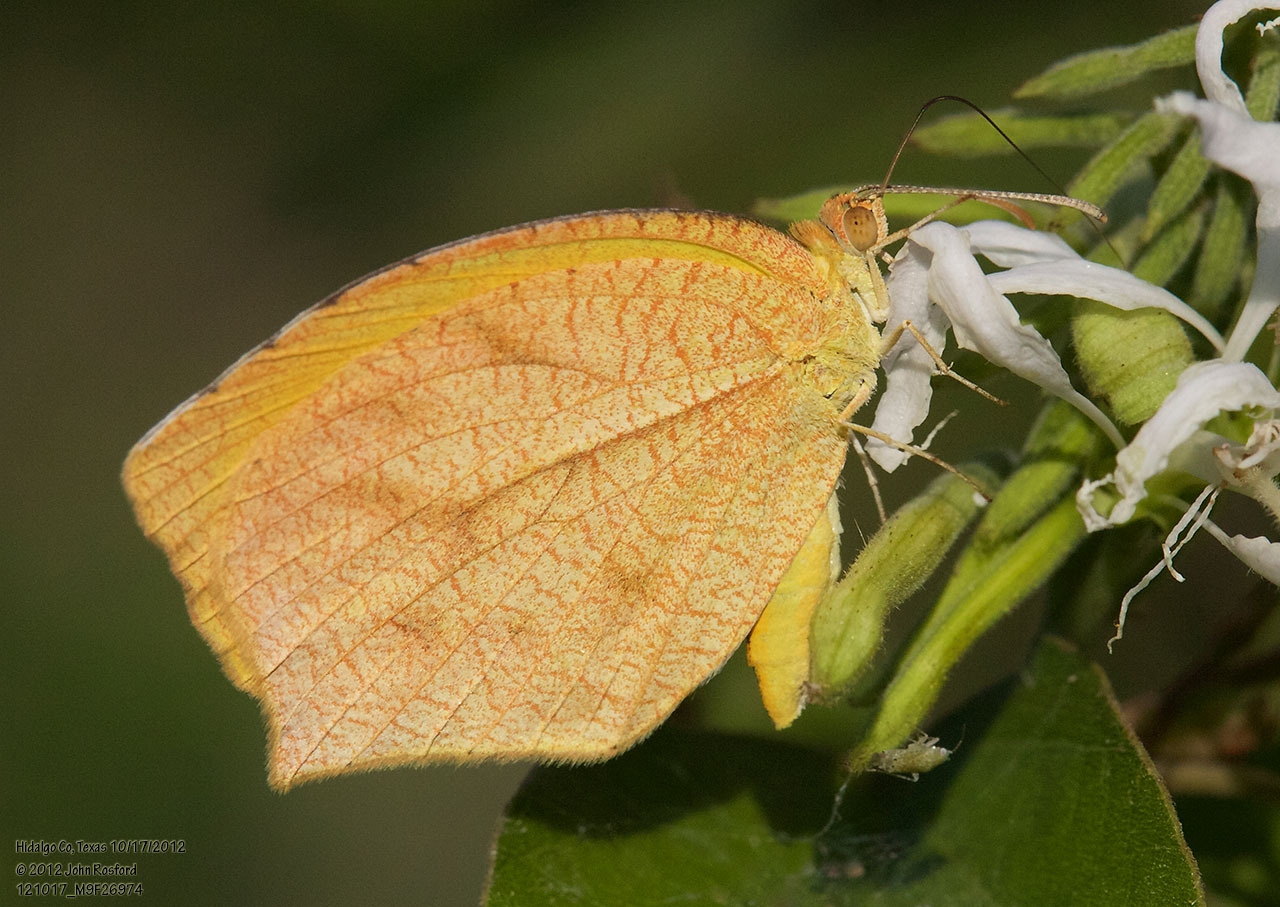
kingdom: Animalia
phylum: Arthropoda
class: Insecta
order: Lepidoptera
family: Pieridae
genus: Pyrisitia
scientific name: Pyrisitia proterpia
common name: Tailed orange
